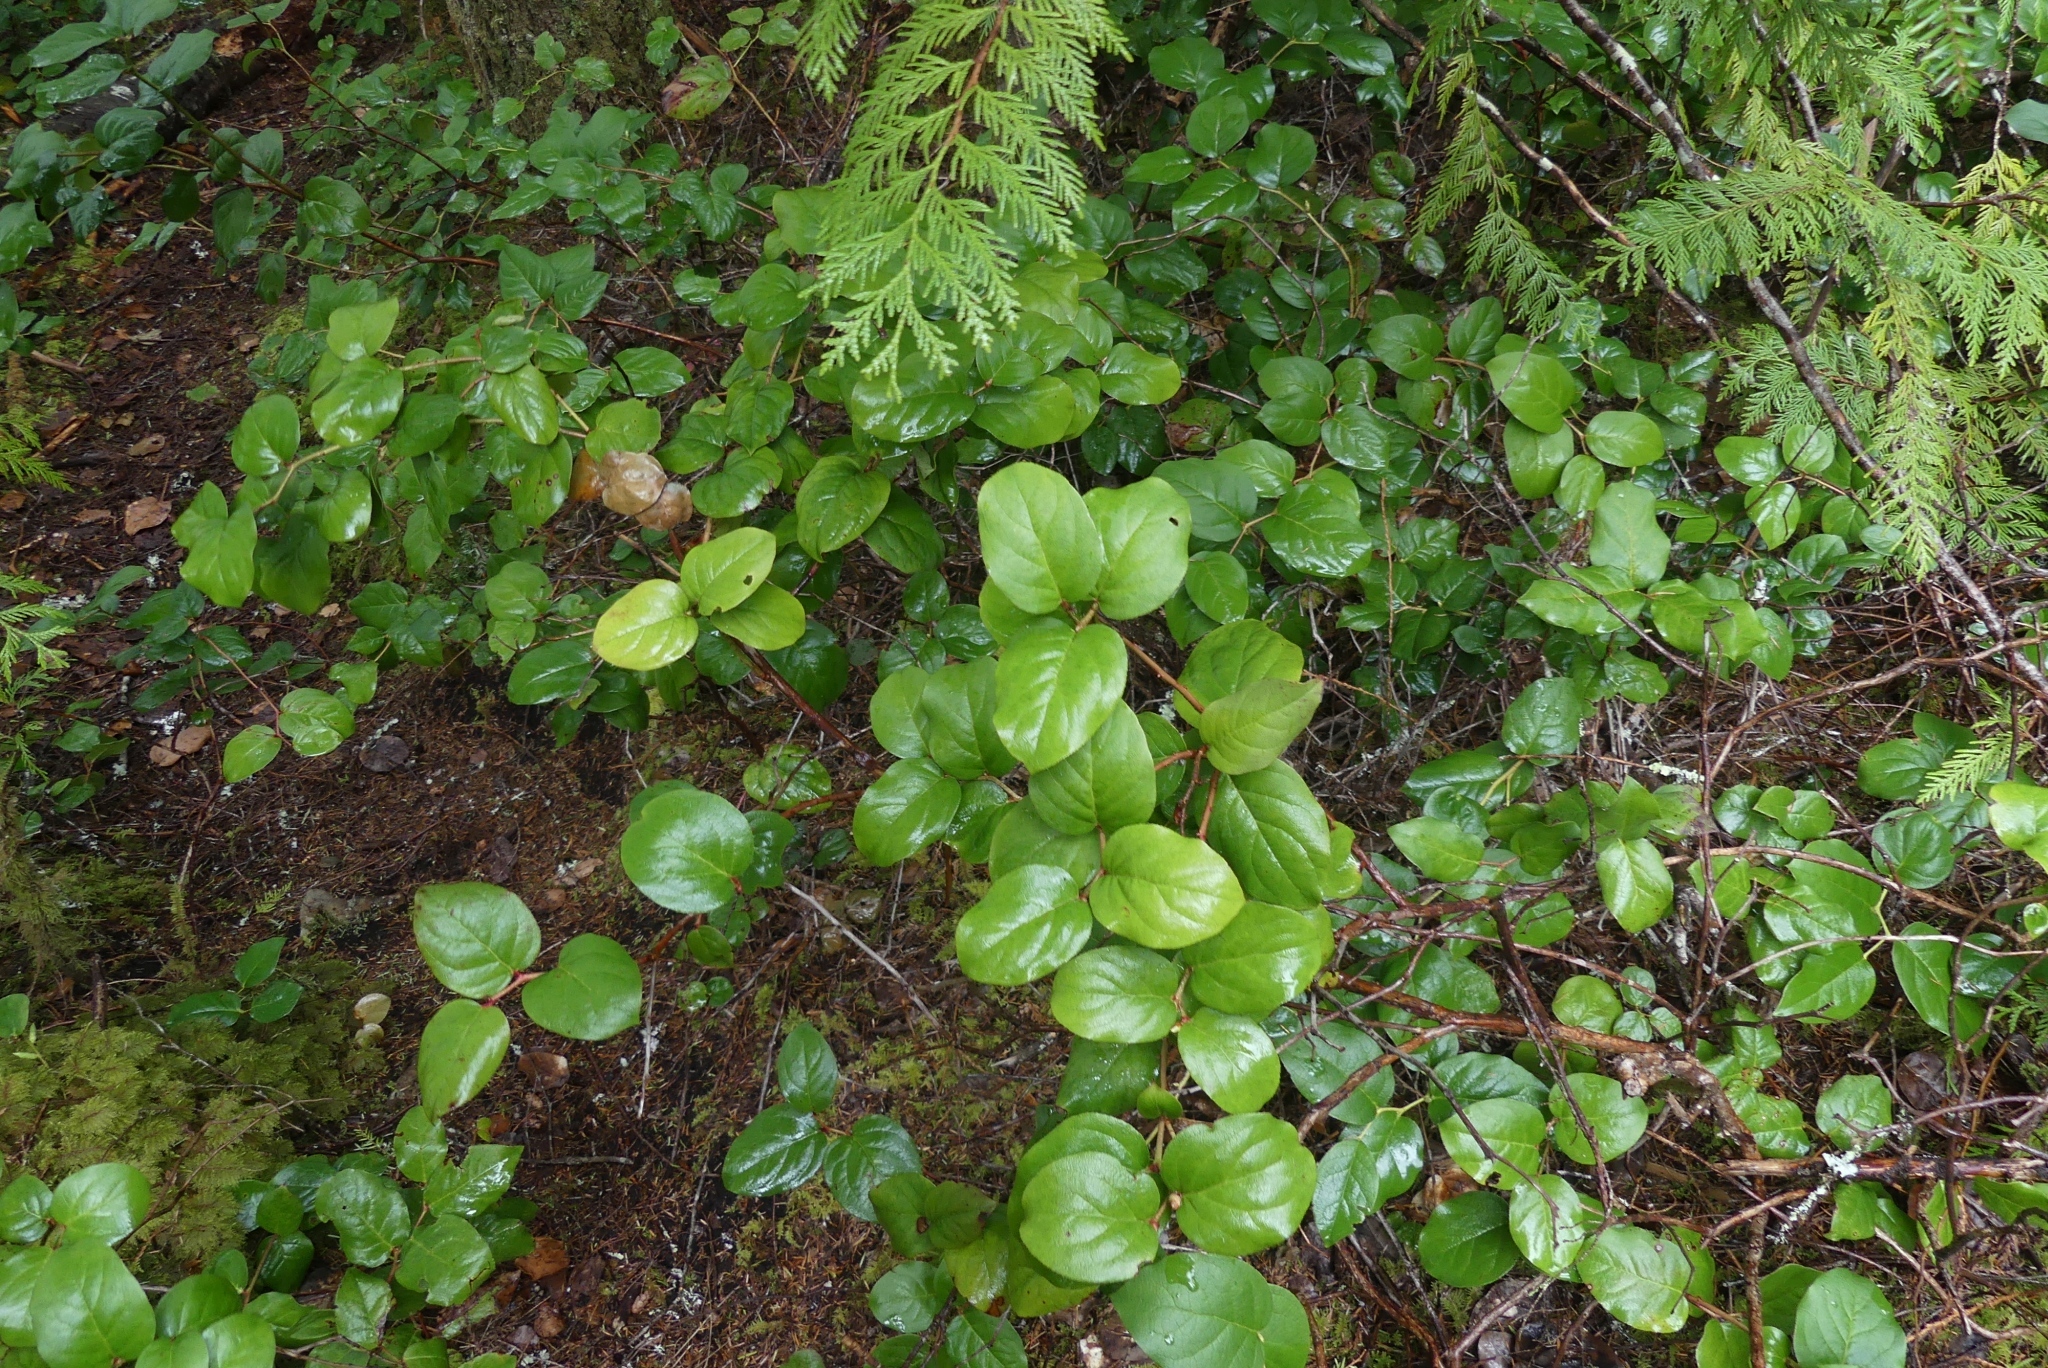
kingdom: Plantae
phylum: Tracheophyta
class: Magnoliopsida
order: Ericales
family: Ericaceae
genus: Gaultheria
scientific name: Gaultheria shallon
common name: Shallon
